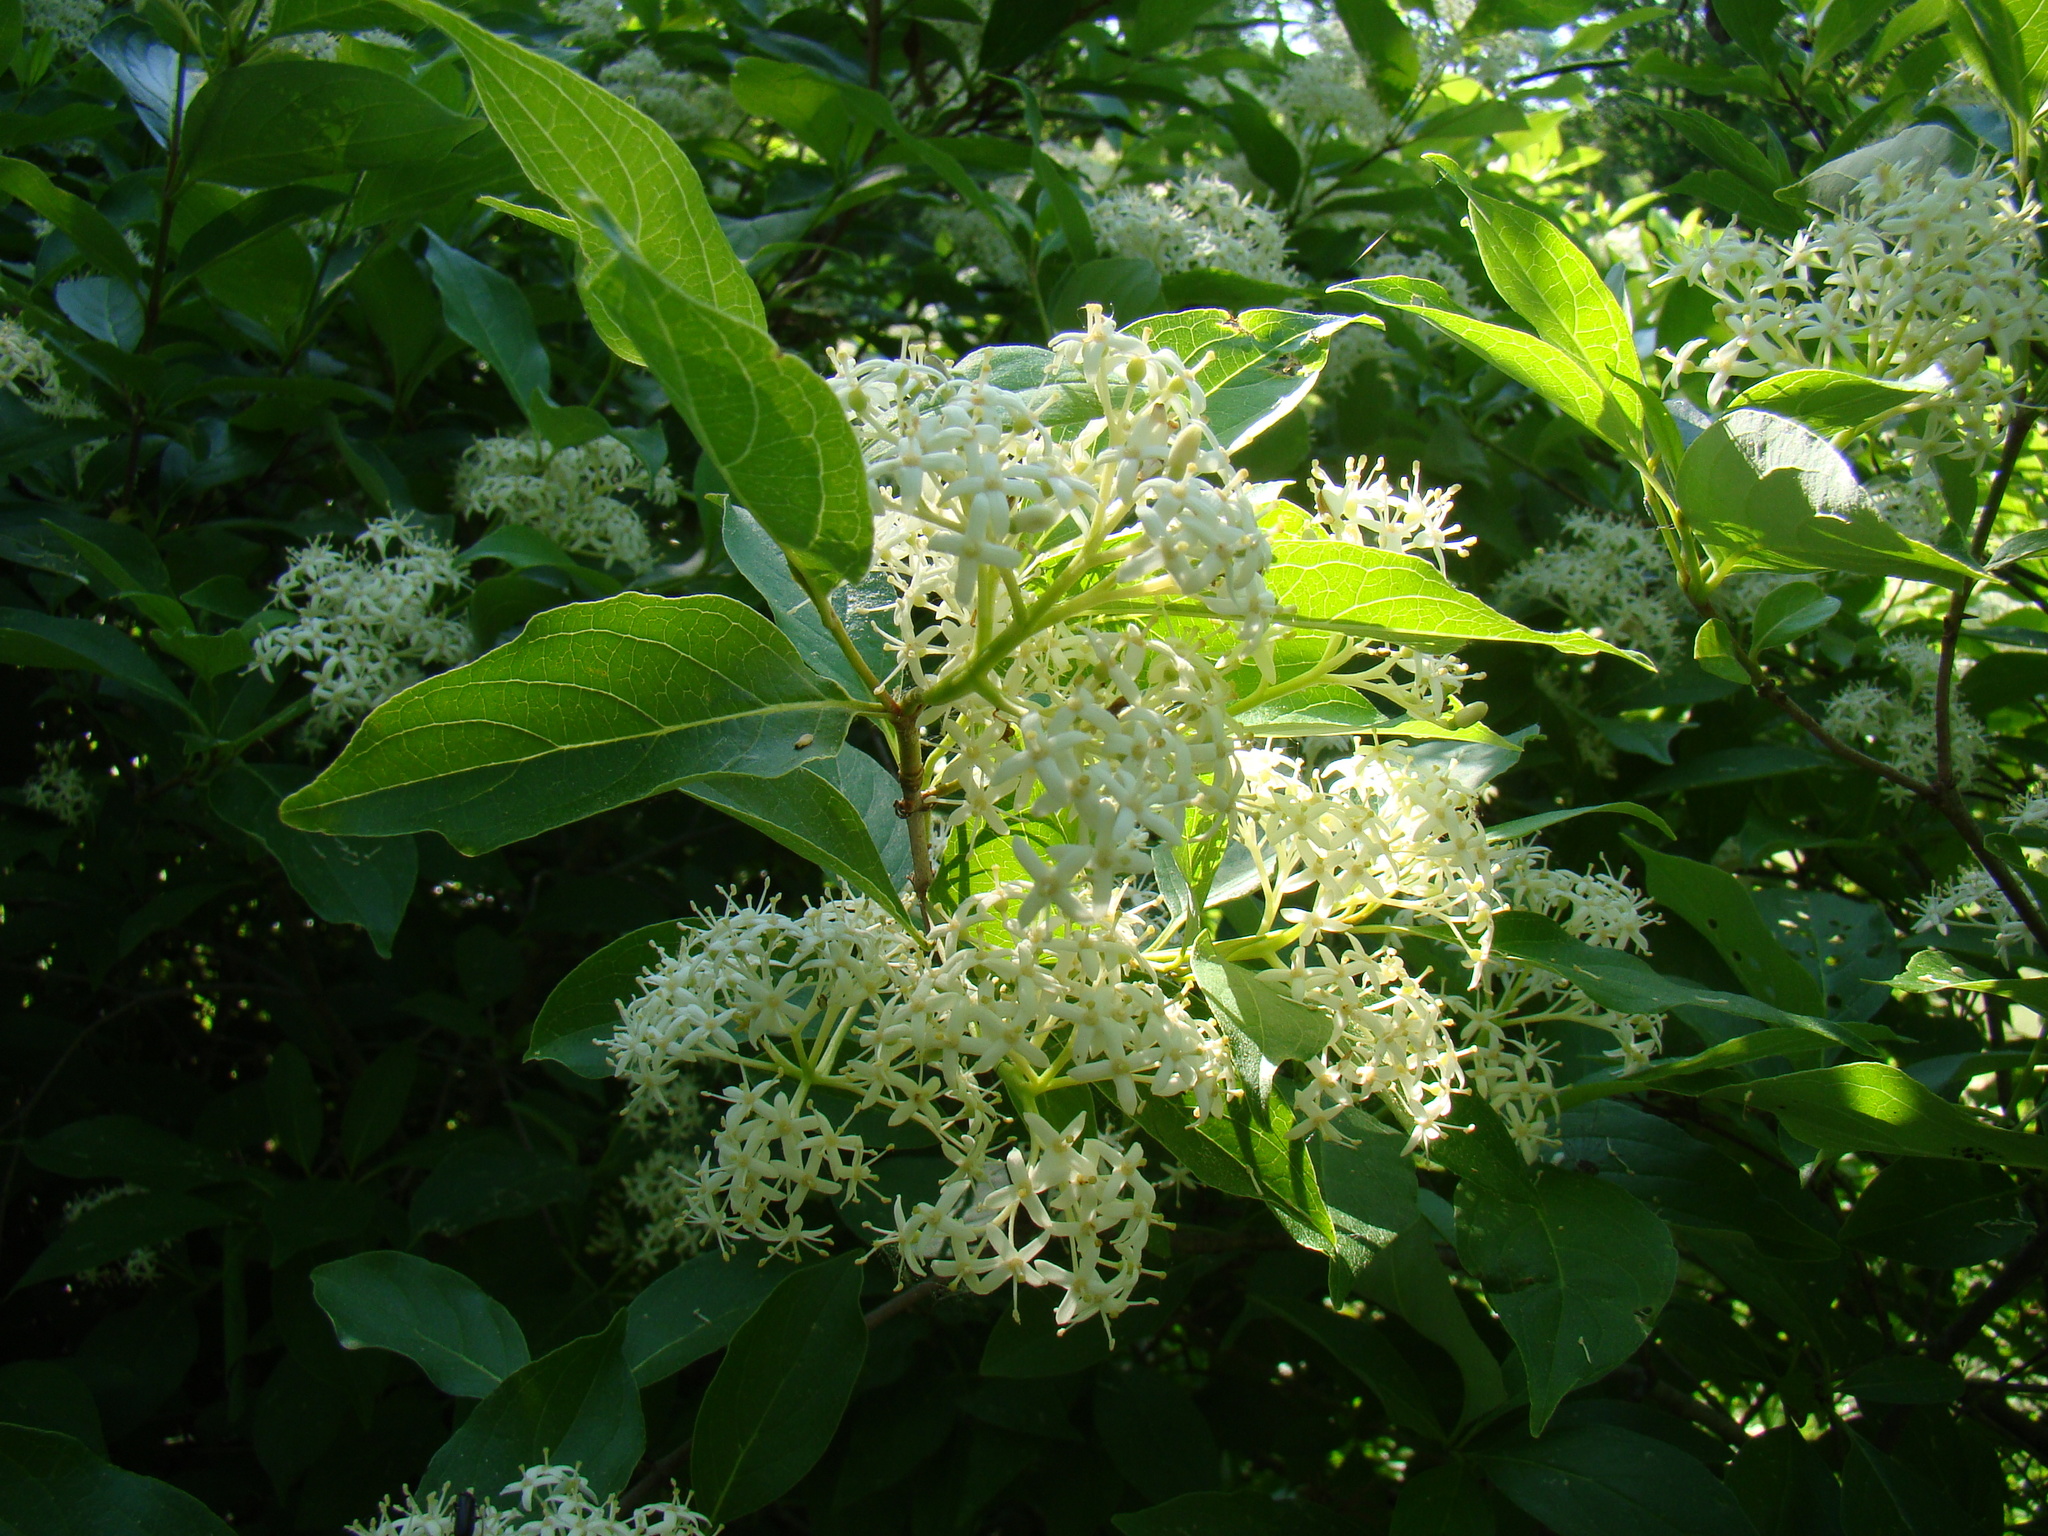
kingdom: Plantae
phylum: Tracheophyta
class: Magnoliopsida
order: Cornales
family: Cornaceae
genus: Cornus
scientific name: Cornus racemosa
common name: Panicled dogwood
